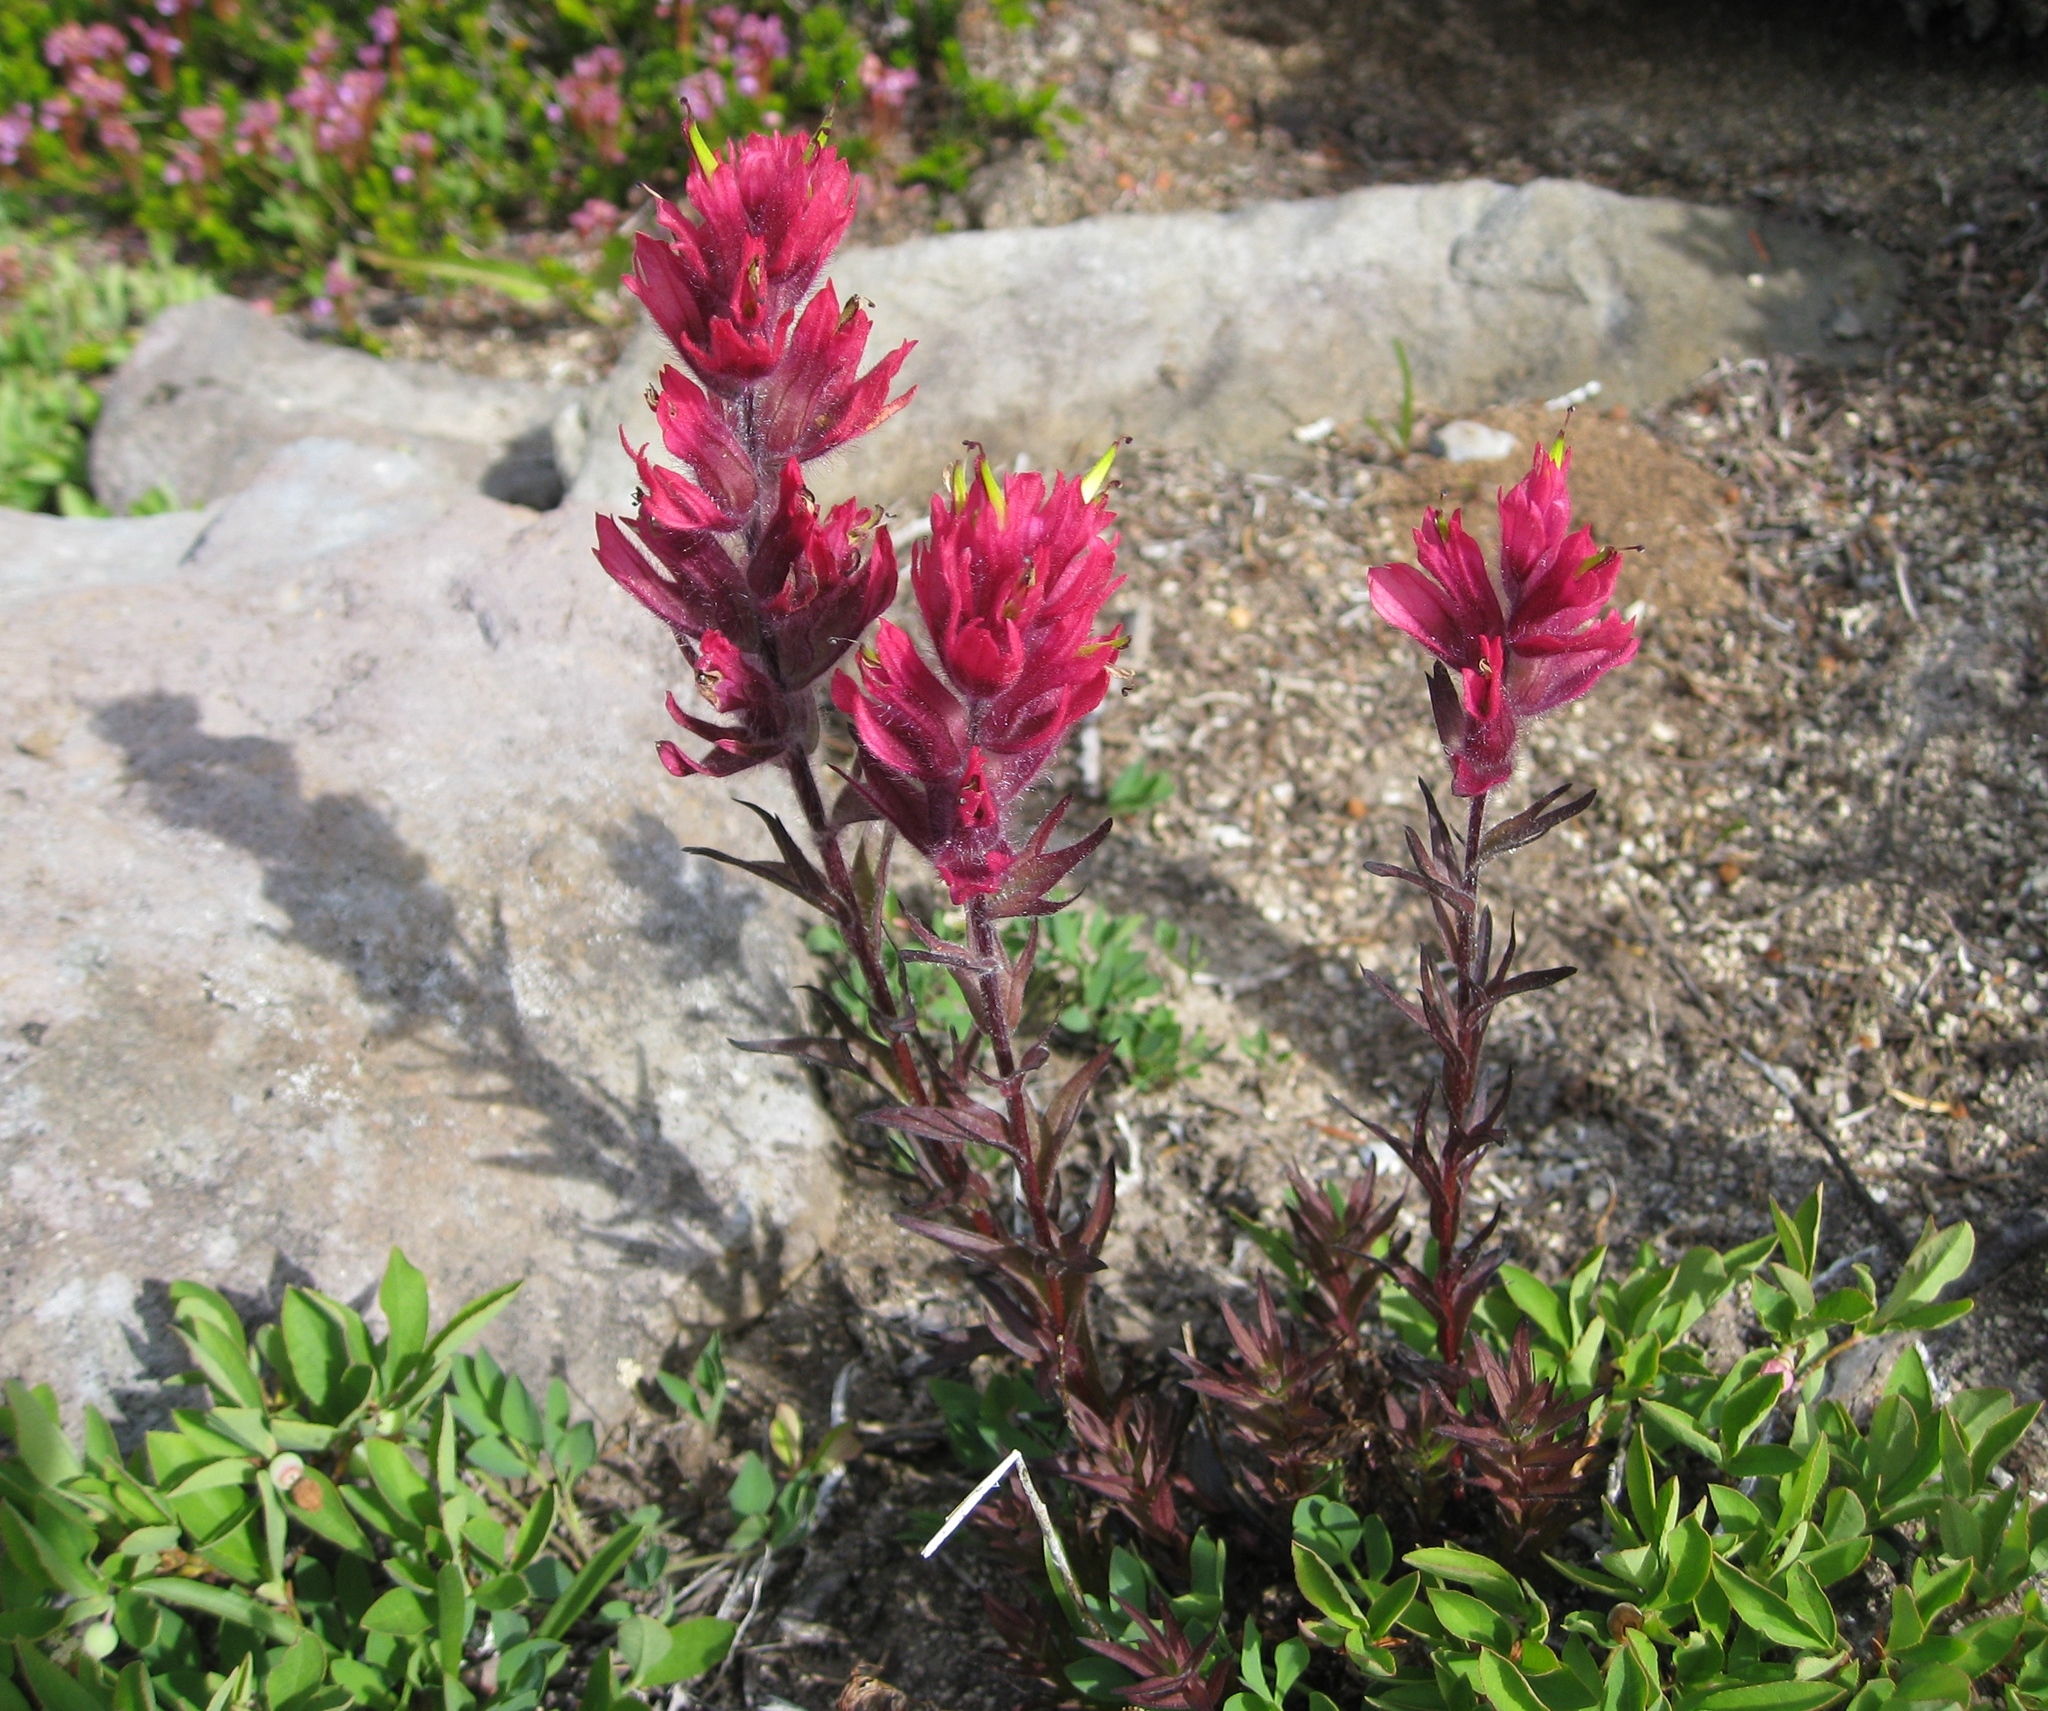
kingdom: Plantae
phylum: Tracheophyta
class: Magnoliopsida
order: Lamiales
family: Orobanchaceae
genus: Castilleja
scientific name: Castilleja parviflora
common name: Mountain paintbrush
